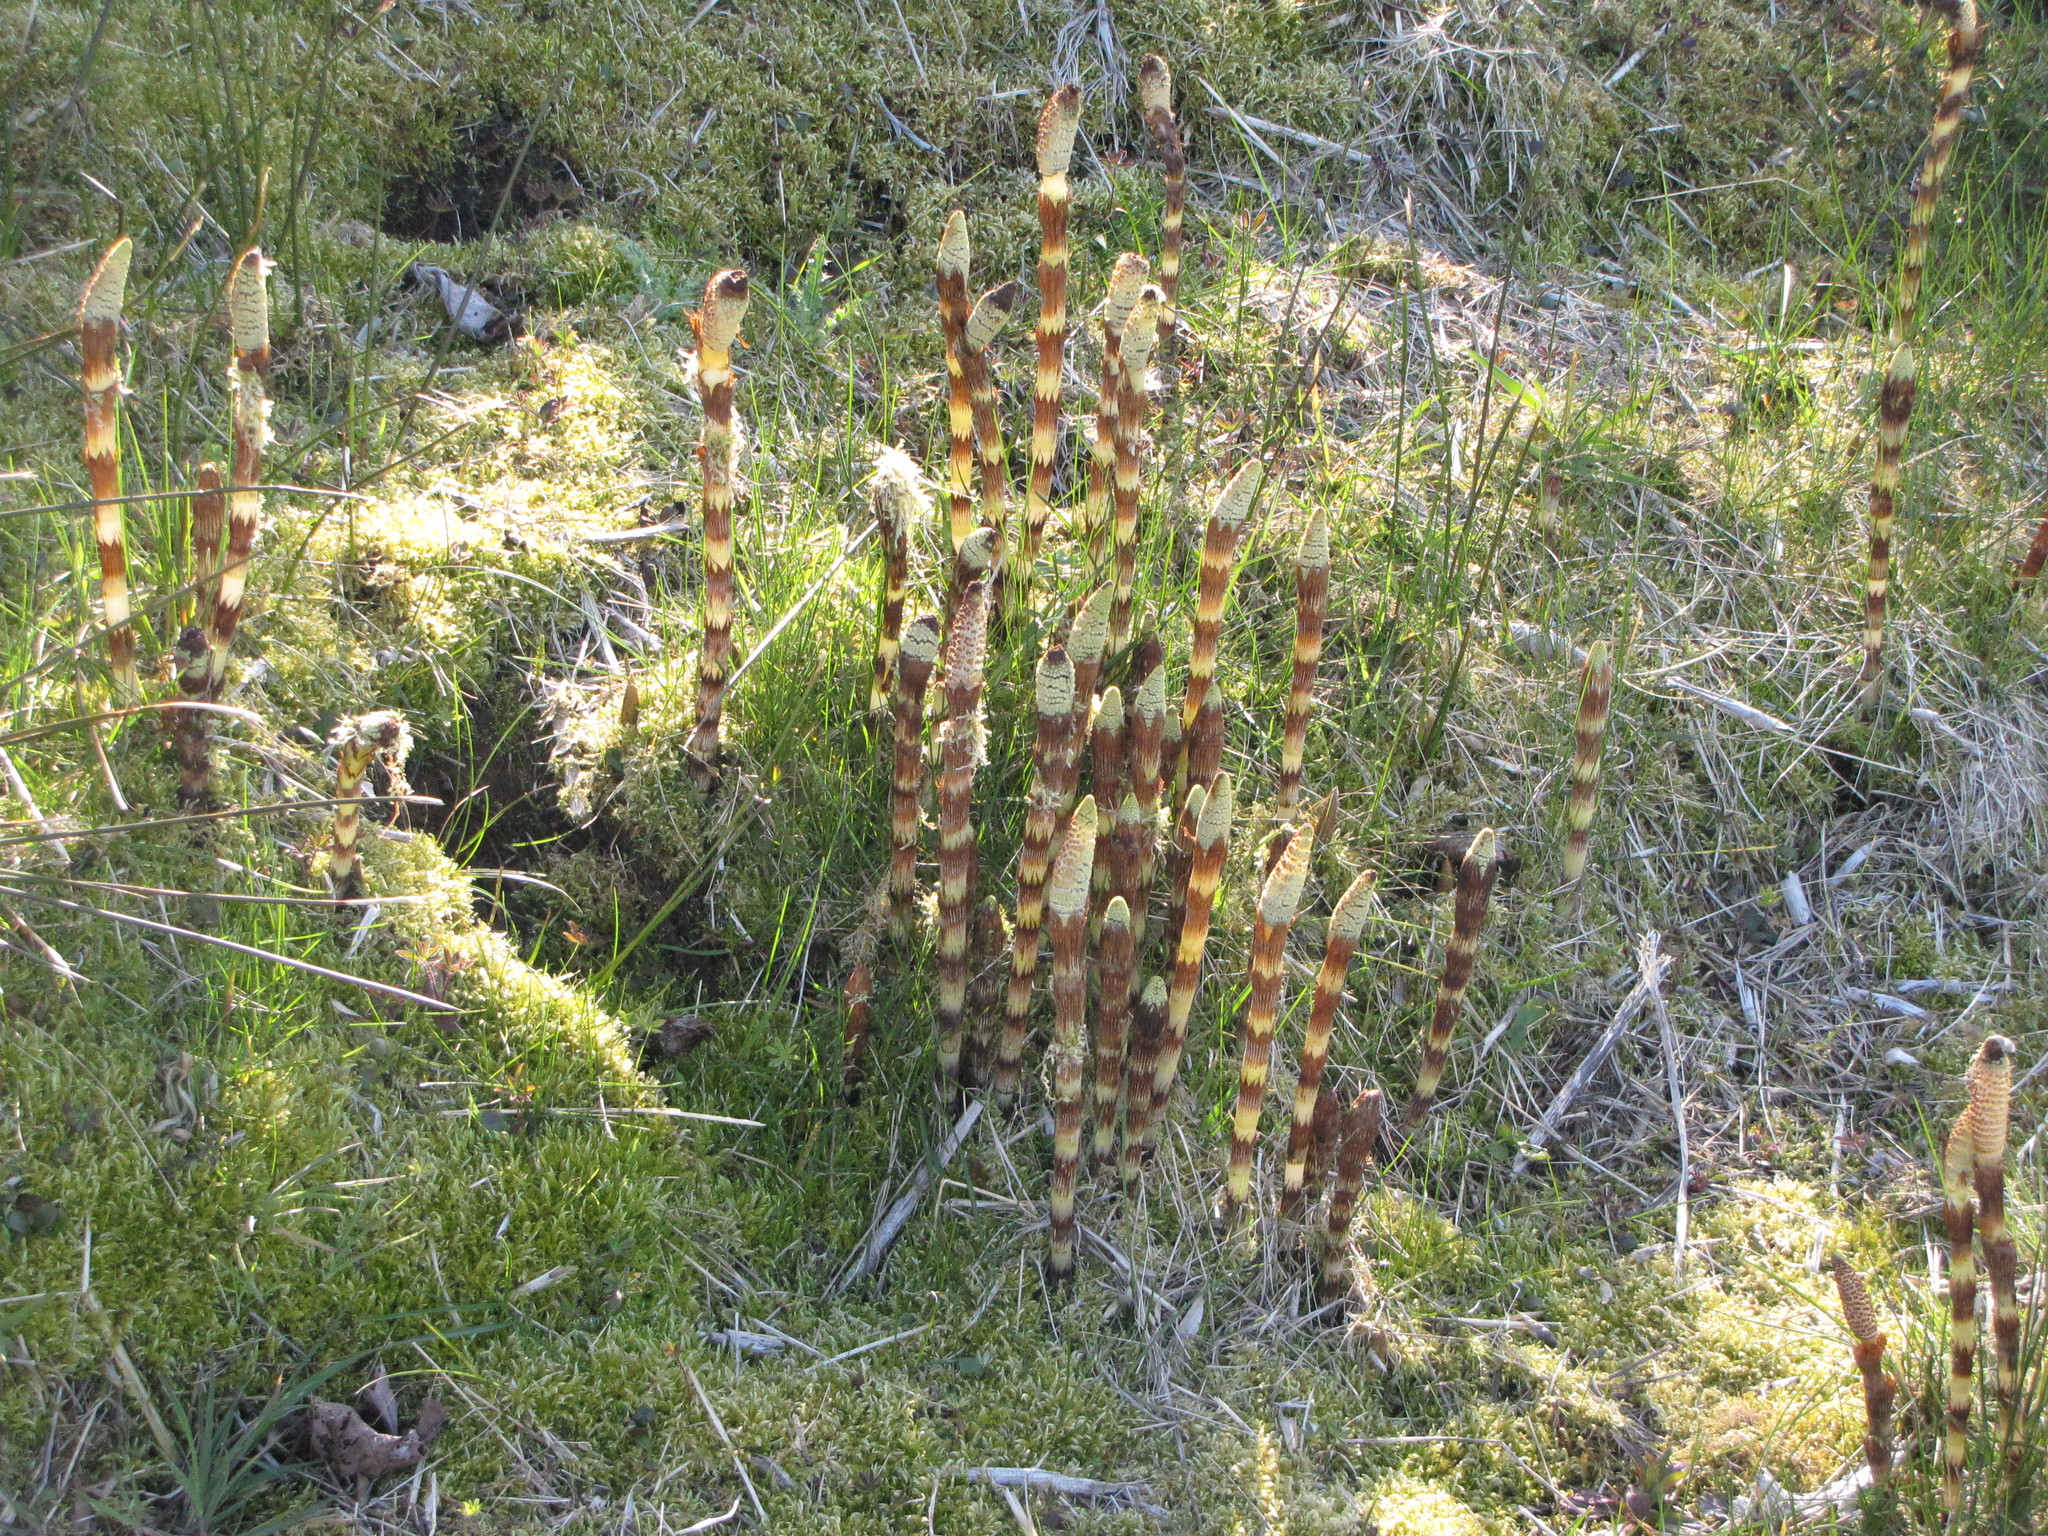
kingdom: Plantae
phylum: Tracheophyta
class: Polypodiopsida
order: Equisetales
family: Equisetaceae
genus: Equisetum
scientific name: Equisetum telmateia
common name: Great horsetail
